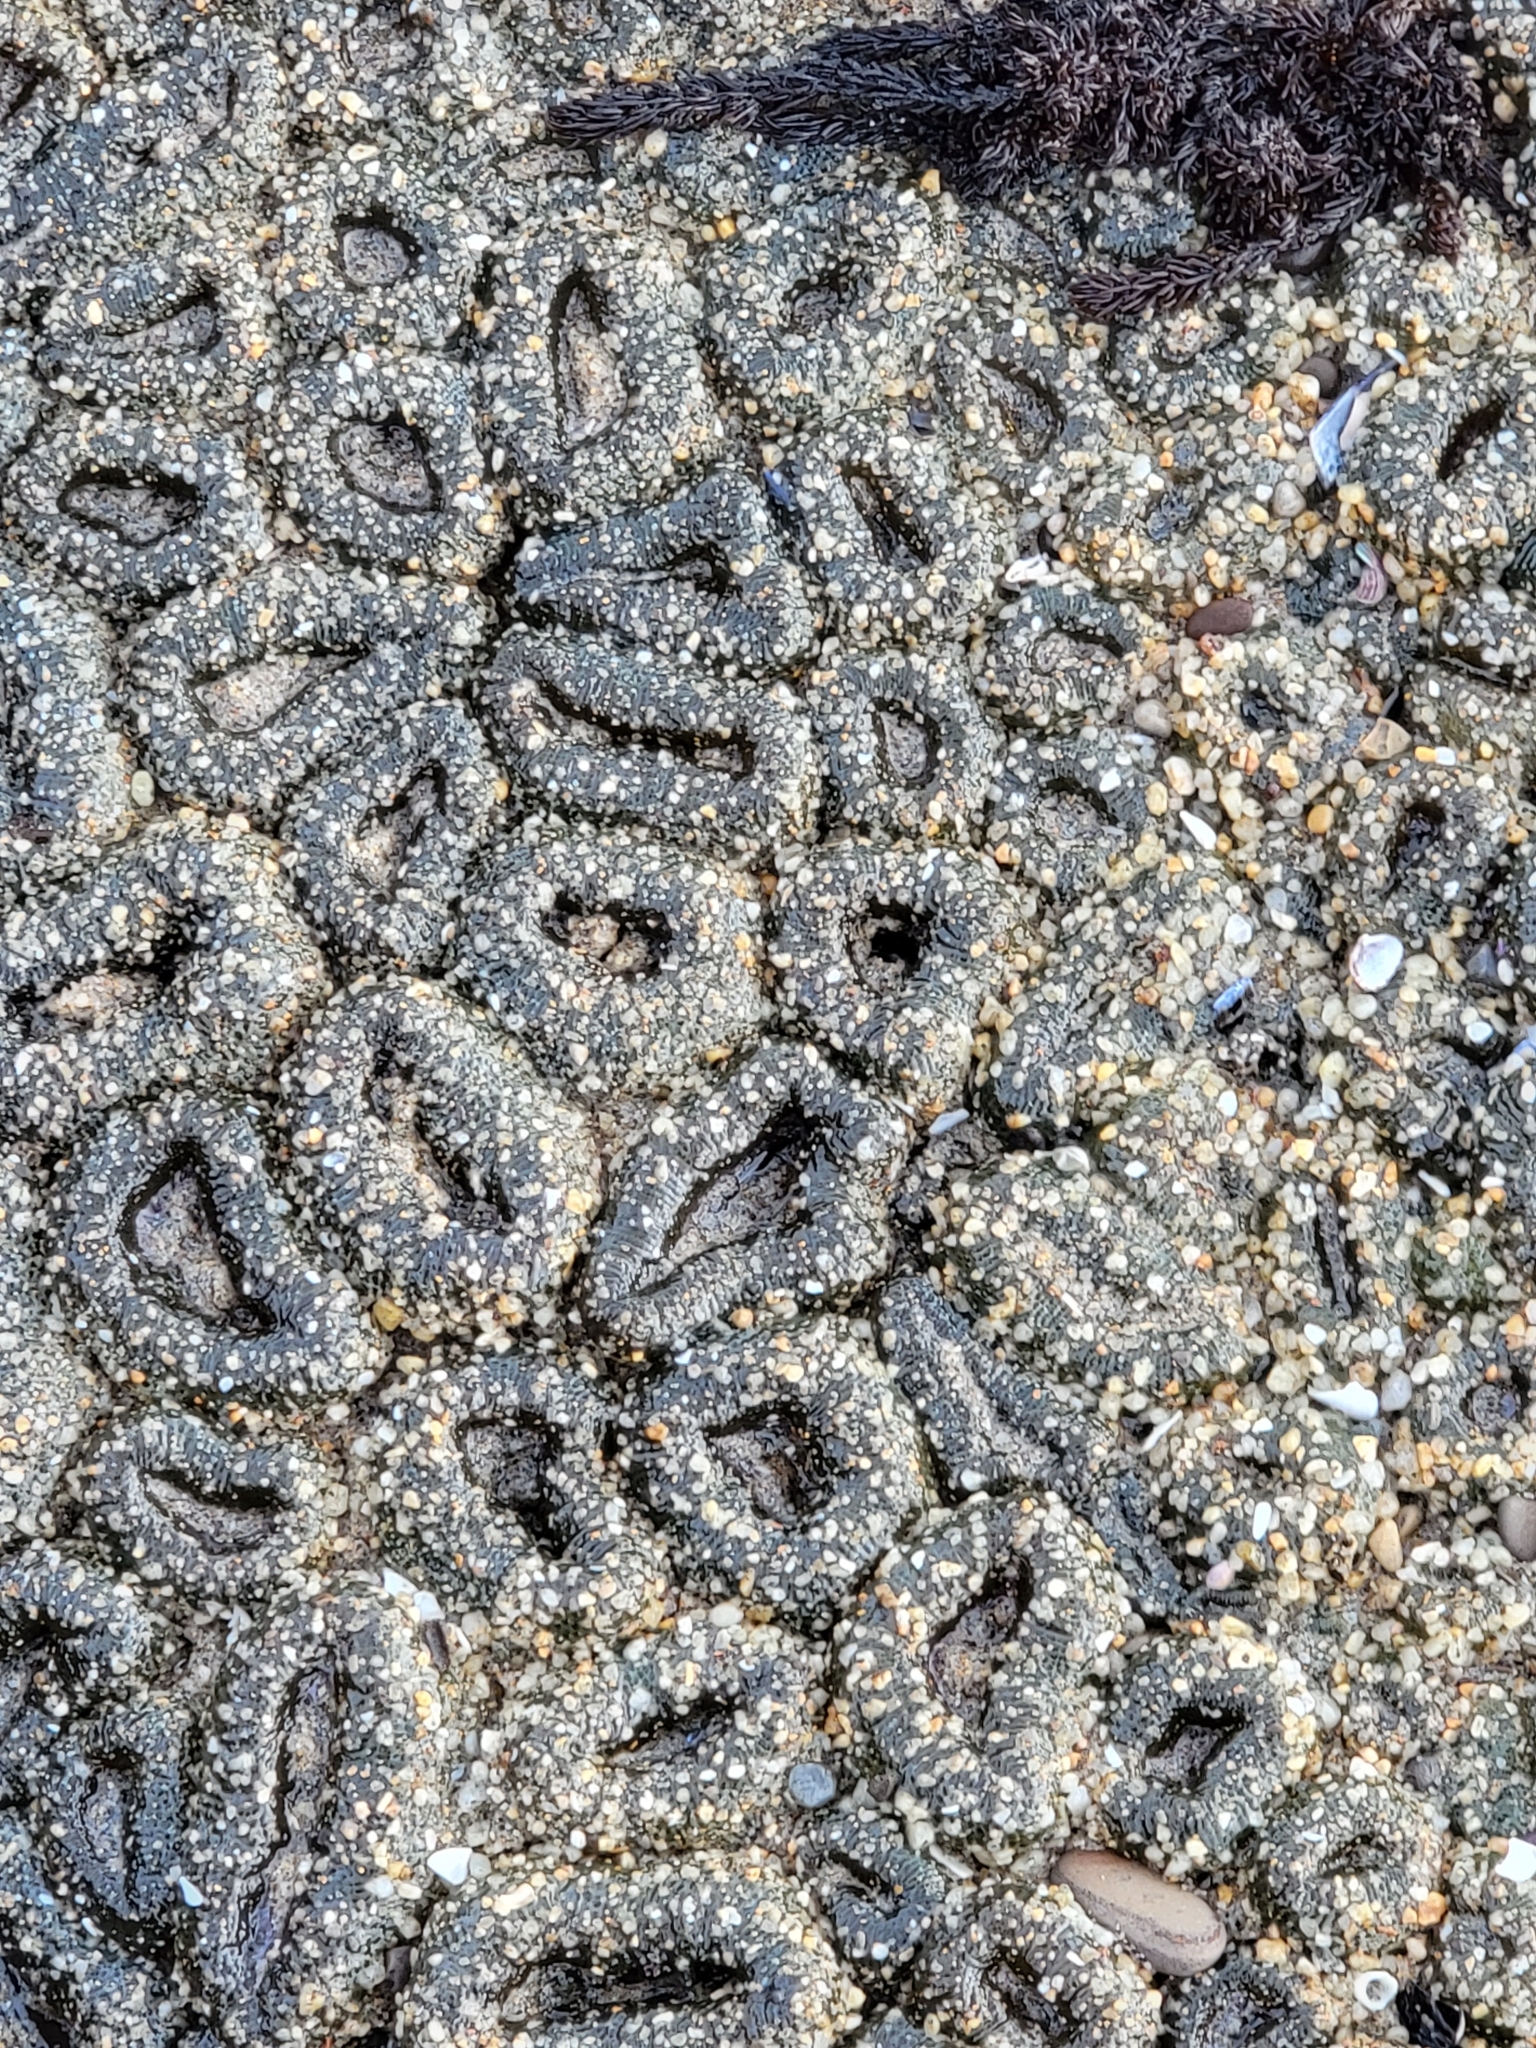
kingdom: Animalia
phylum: Cnidaria
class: Anthozoa
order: Actiniaria
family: Actiniidae
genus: Anthopleura
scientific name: Anthopleura elegantissima
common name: Clonal anemone
